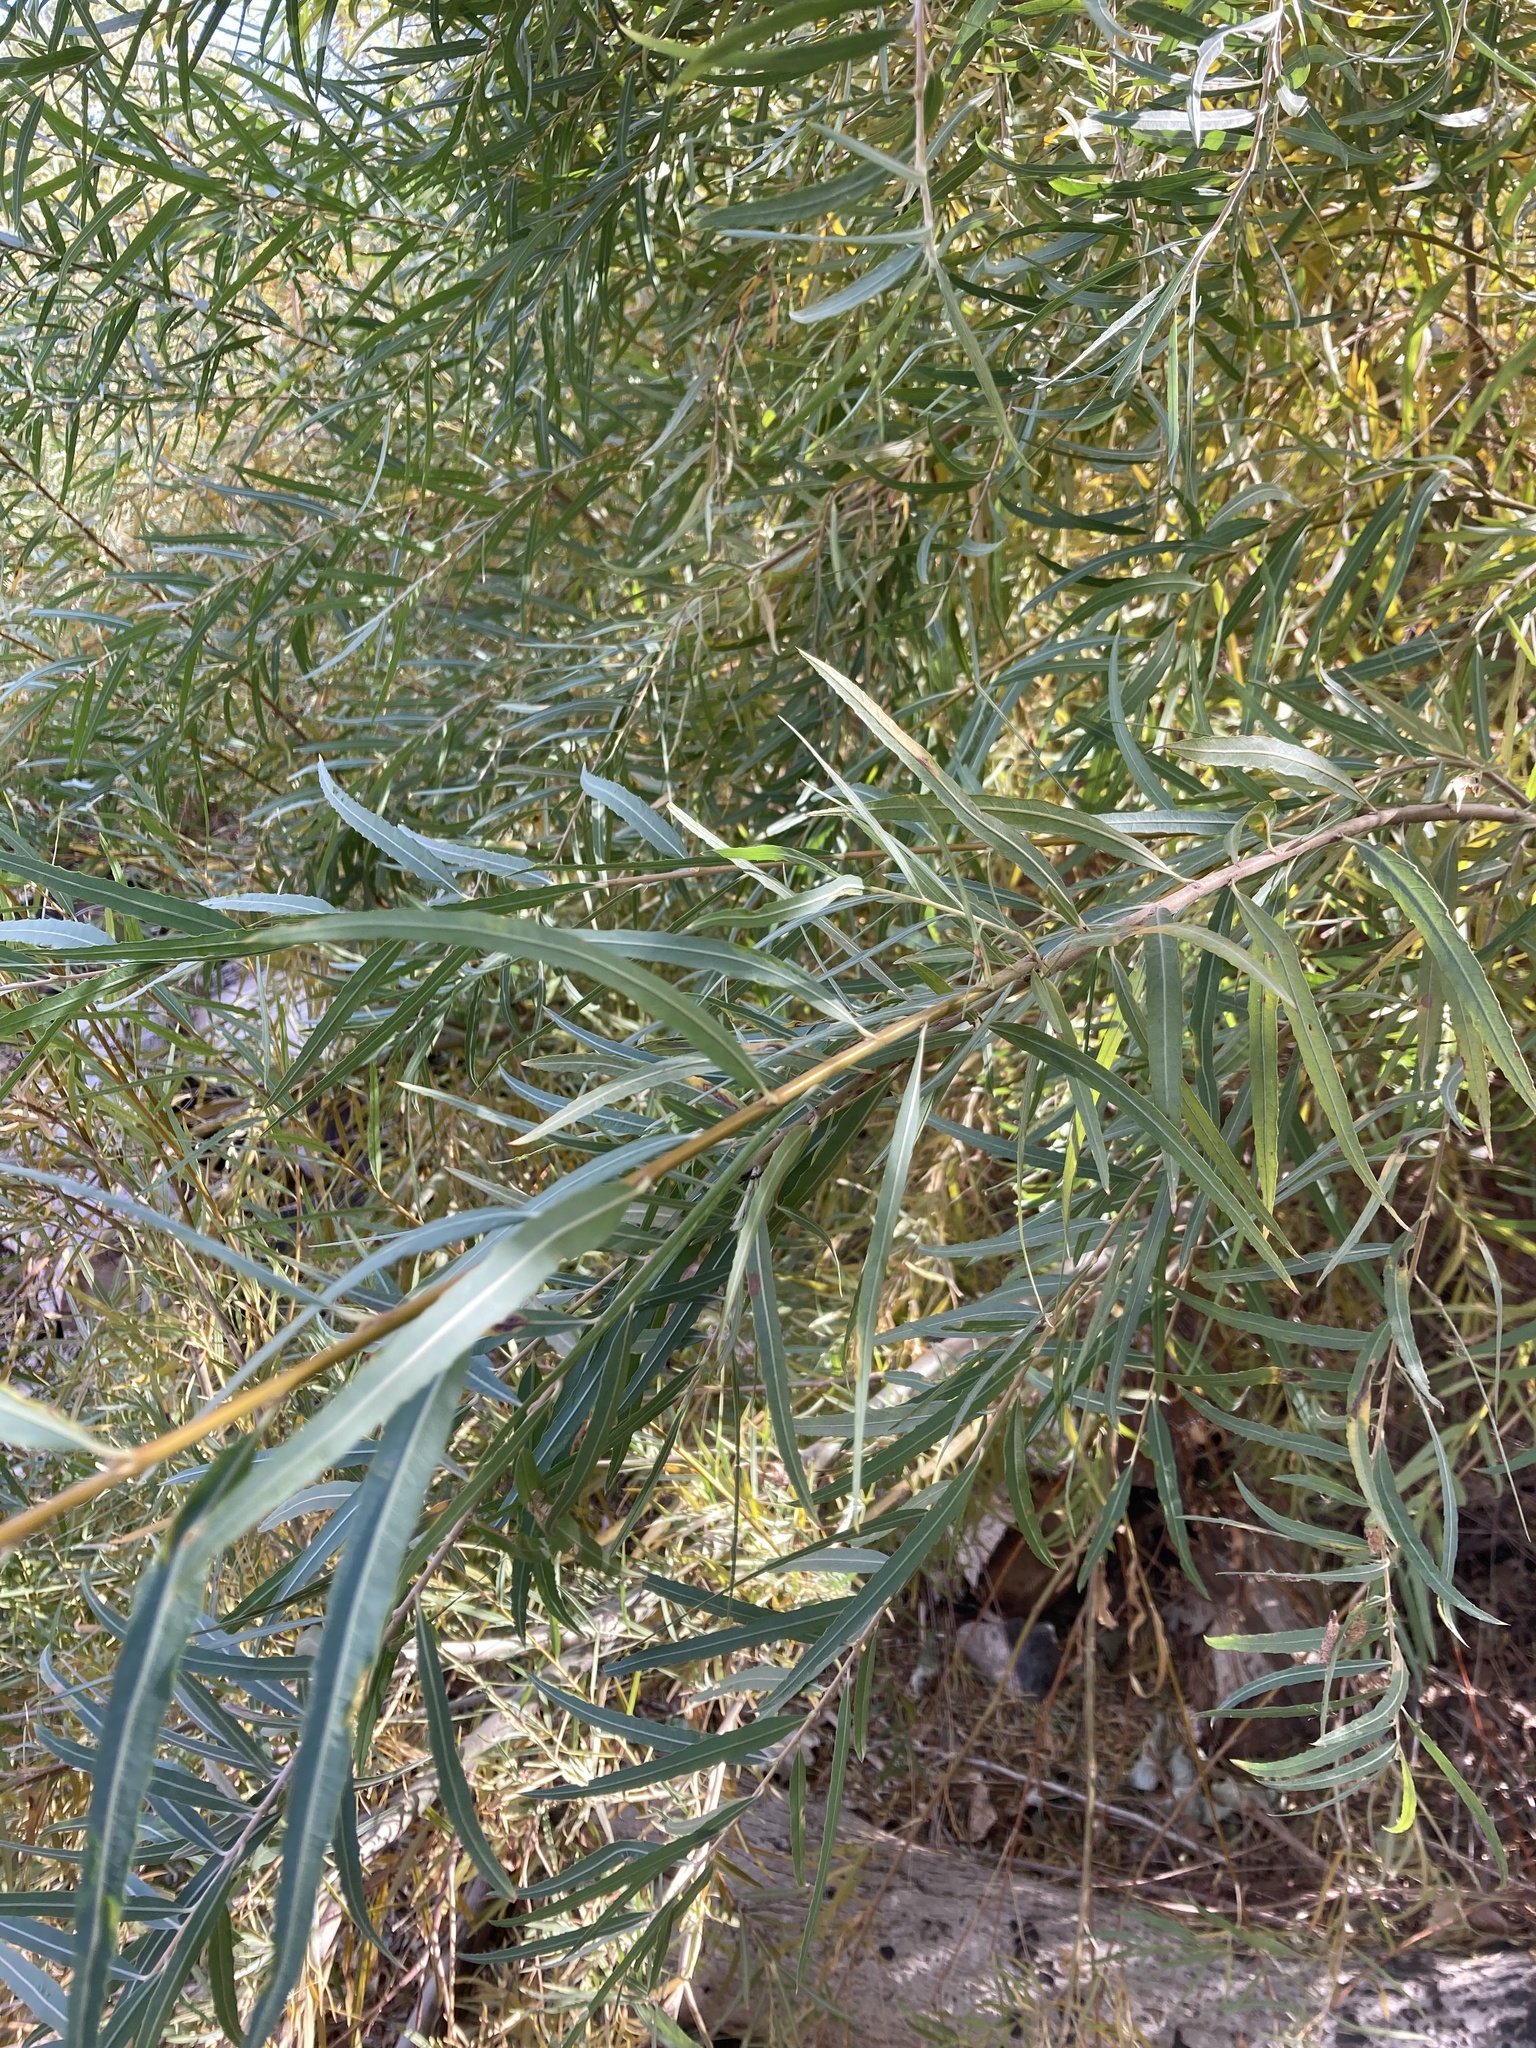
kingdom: Plantae
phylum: Tracheophyta
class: Magnoliopsida
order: Malpighiales
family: Salicaceae
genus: Salix
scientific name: Salix exigua
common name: Coyote willow
